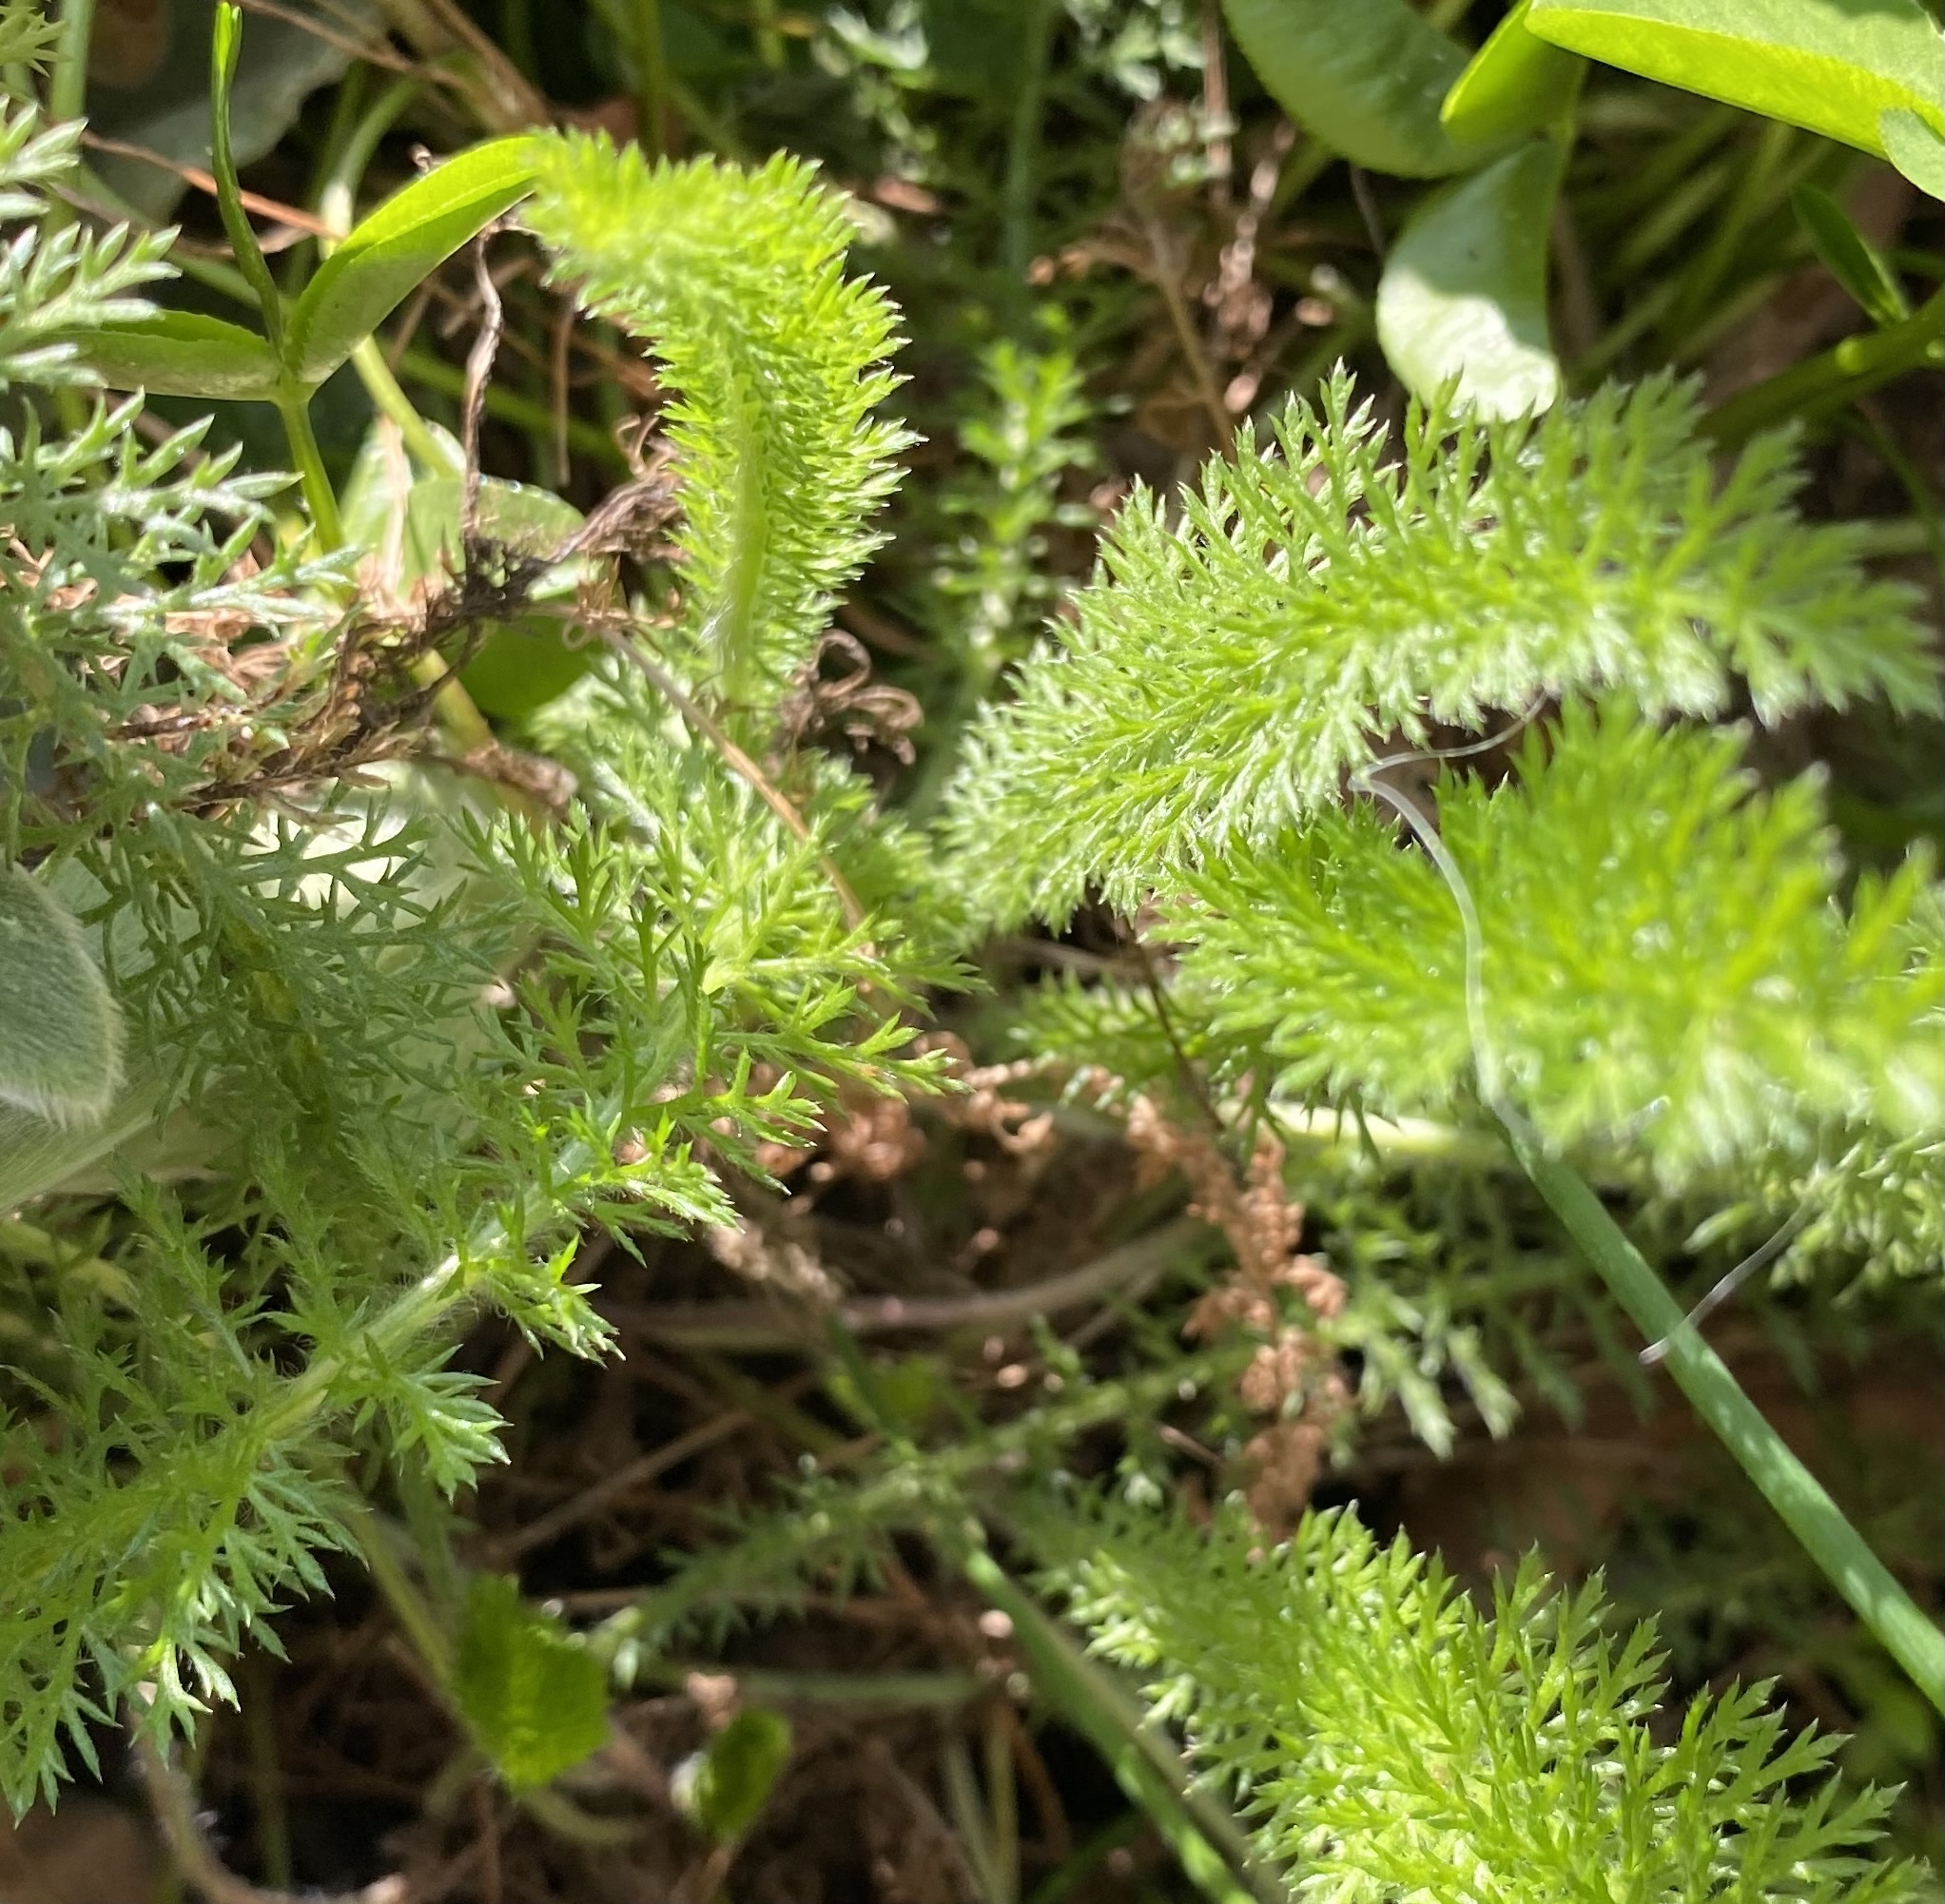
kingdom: Plantae
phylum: Tracheophyta
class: Magnoliopsida
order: Asterales
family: Asteraceae
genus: Achillea
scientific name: Achillea millefolium
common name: Yarrow
